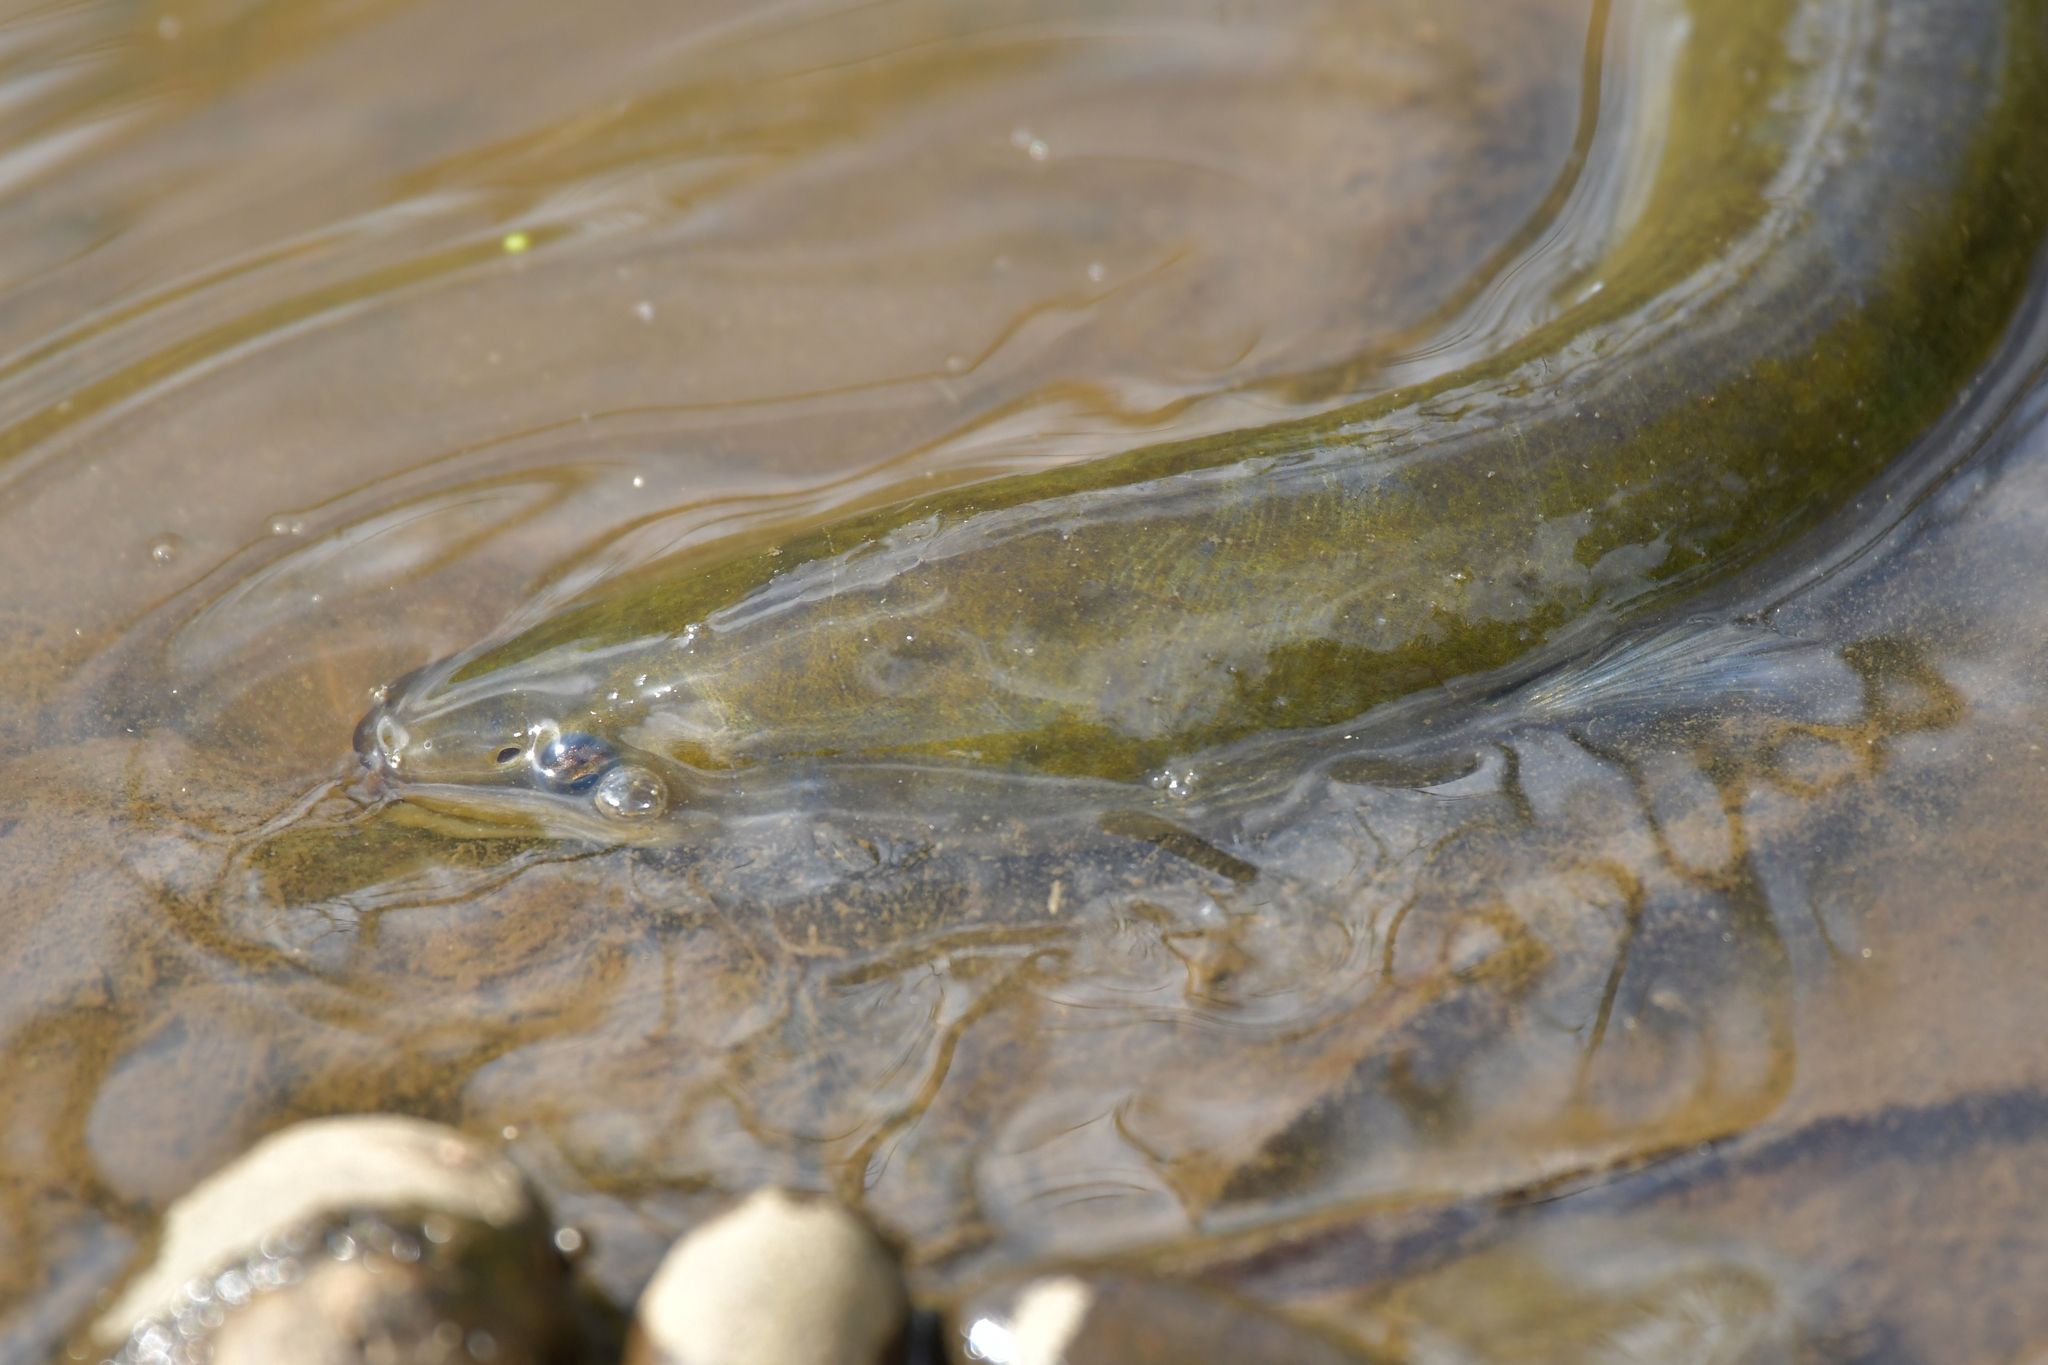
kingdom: Animalia
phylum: Chordata
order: Anguilliformes
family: Anguillidae
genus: Anguilla
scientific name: Anguilla australis
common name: Shortfin eel
